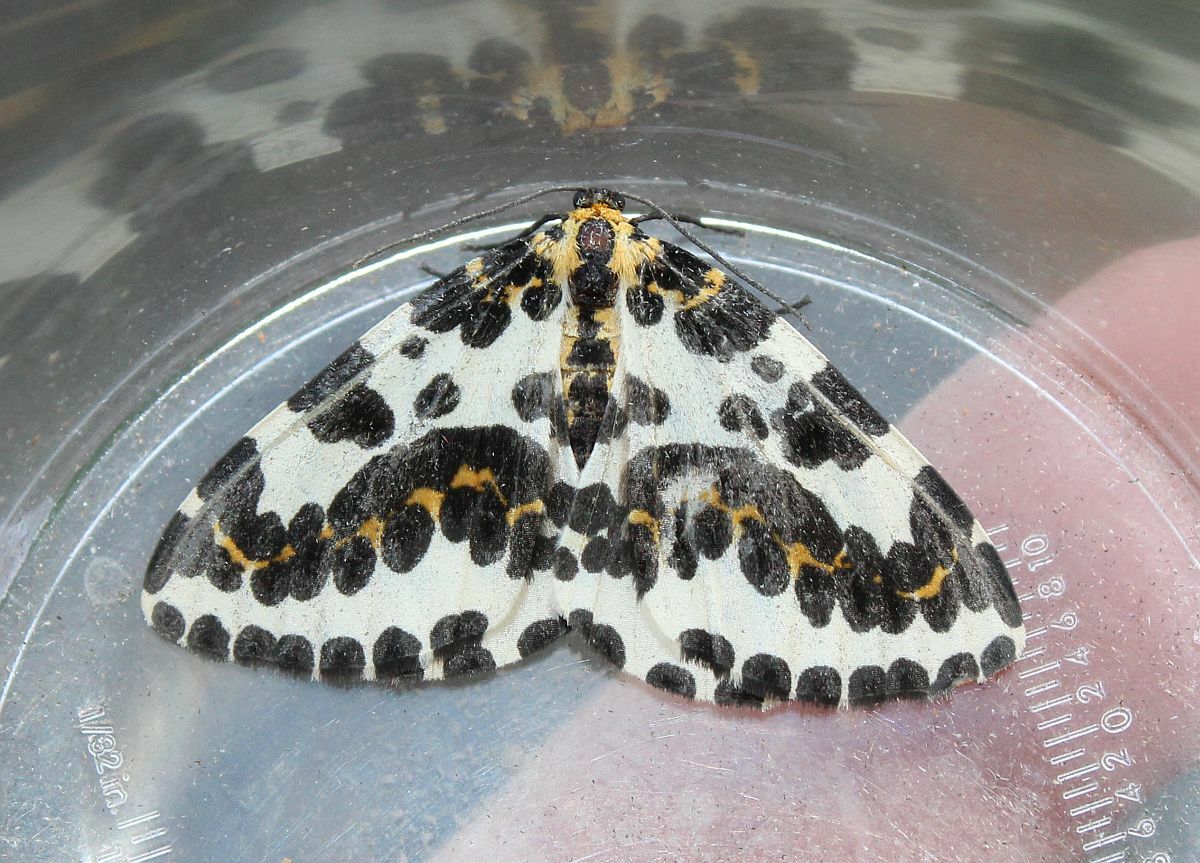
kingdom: Animalia
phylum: Arthropoda
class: Insecta
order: Lepidoptera
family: Geometridae
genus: Abraxas
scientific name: Abraxas grossulariata
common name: Magpie
